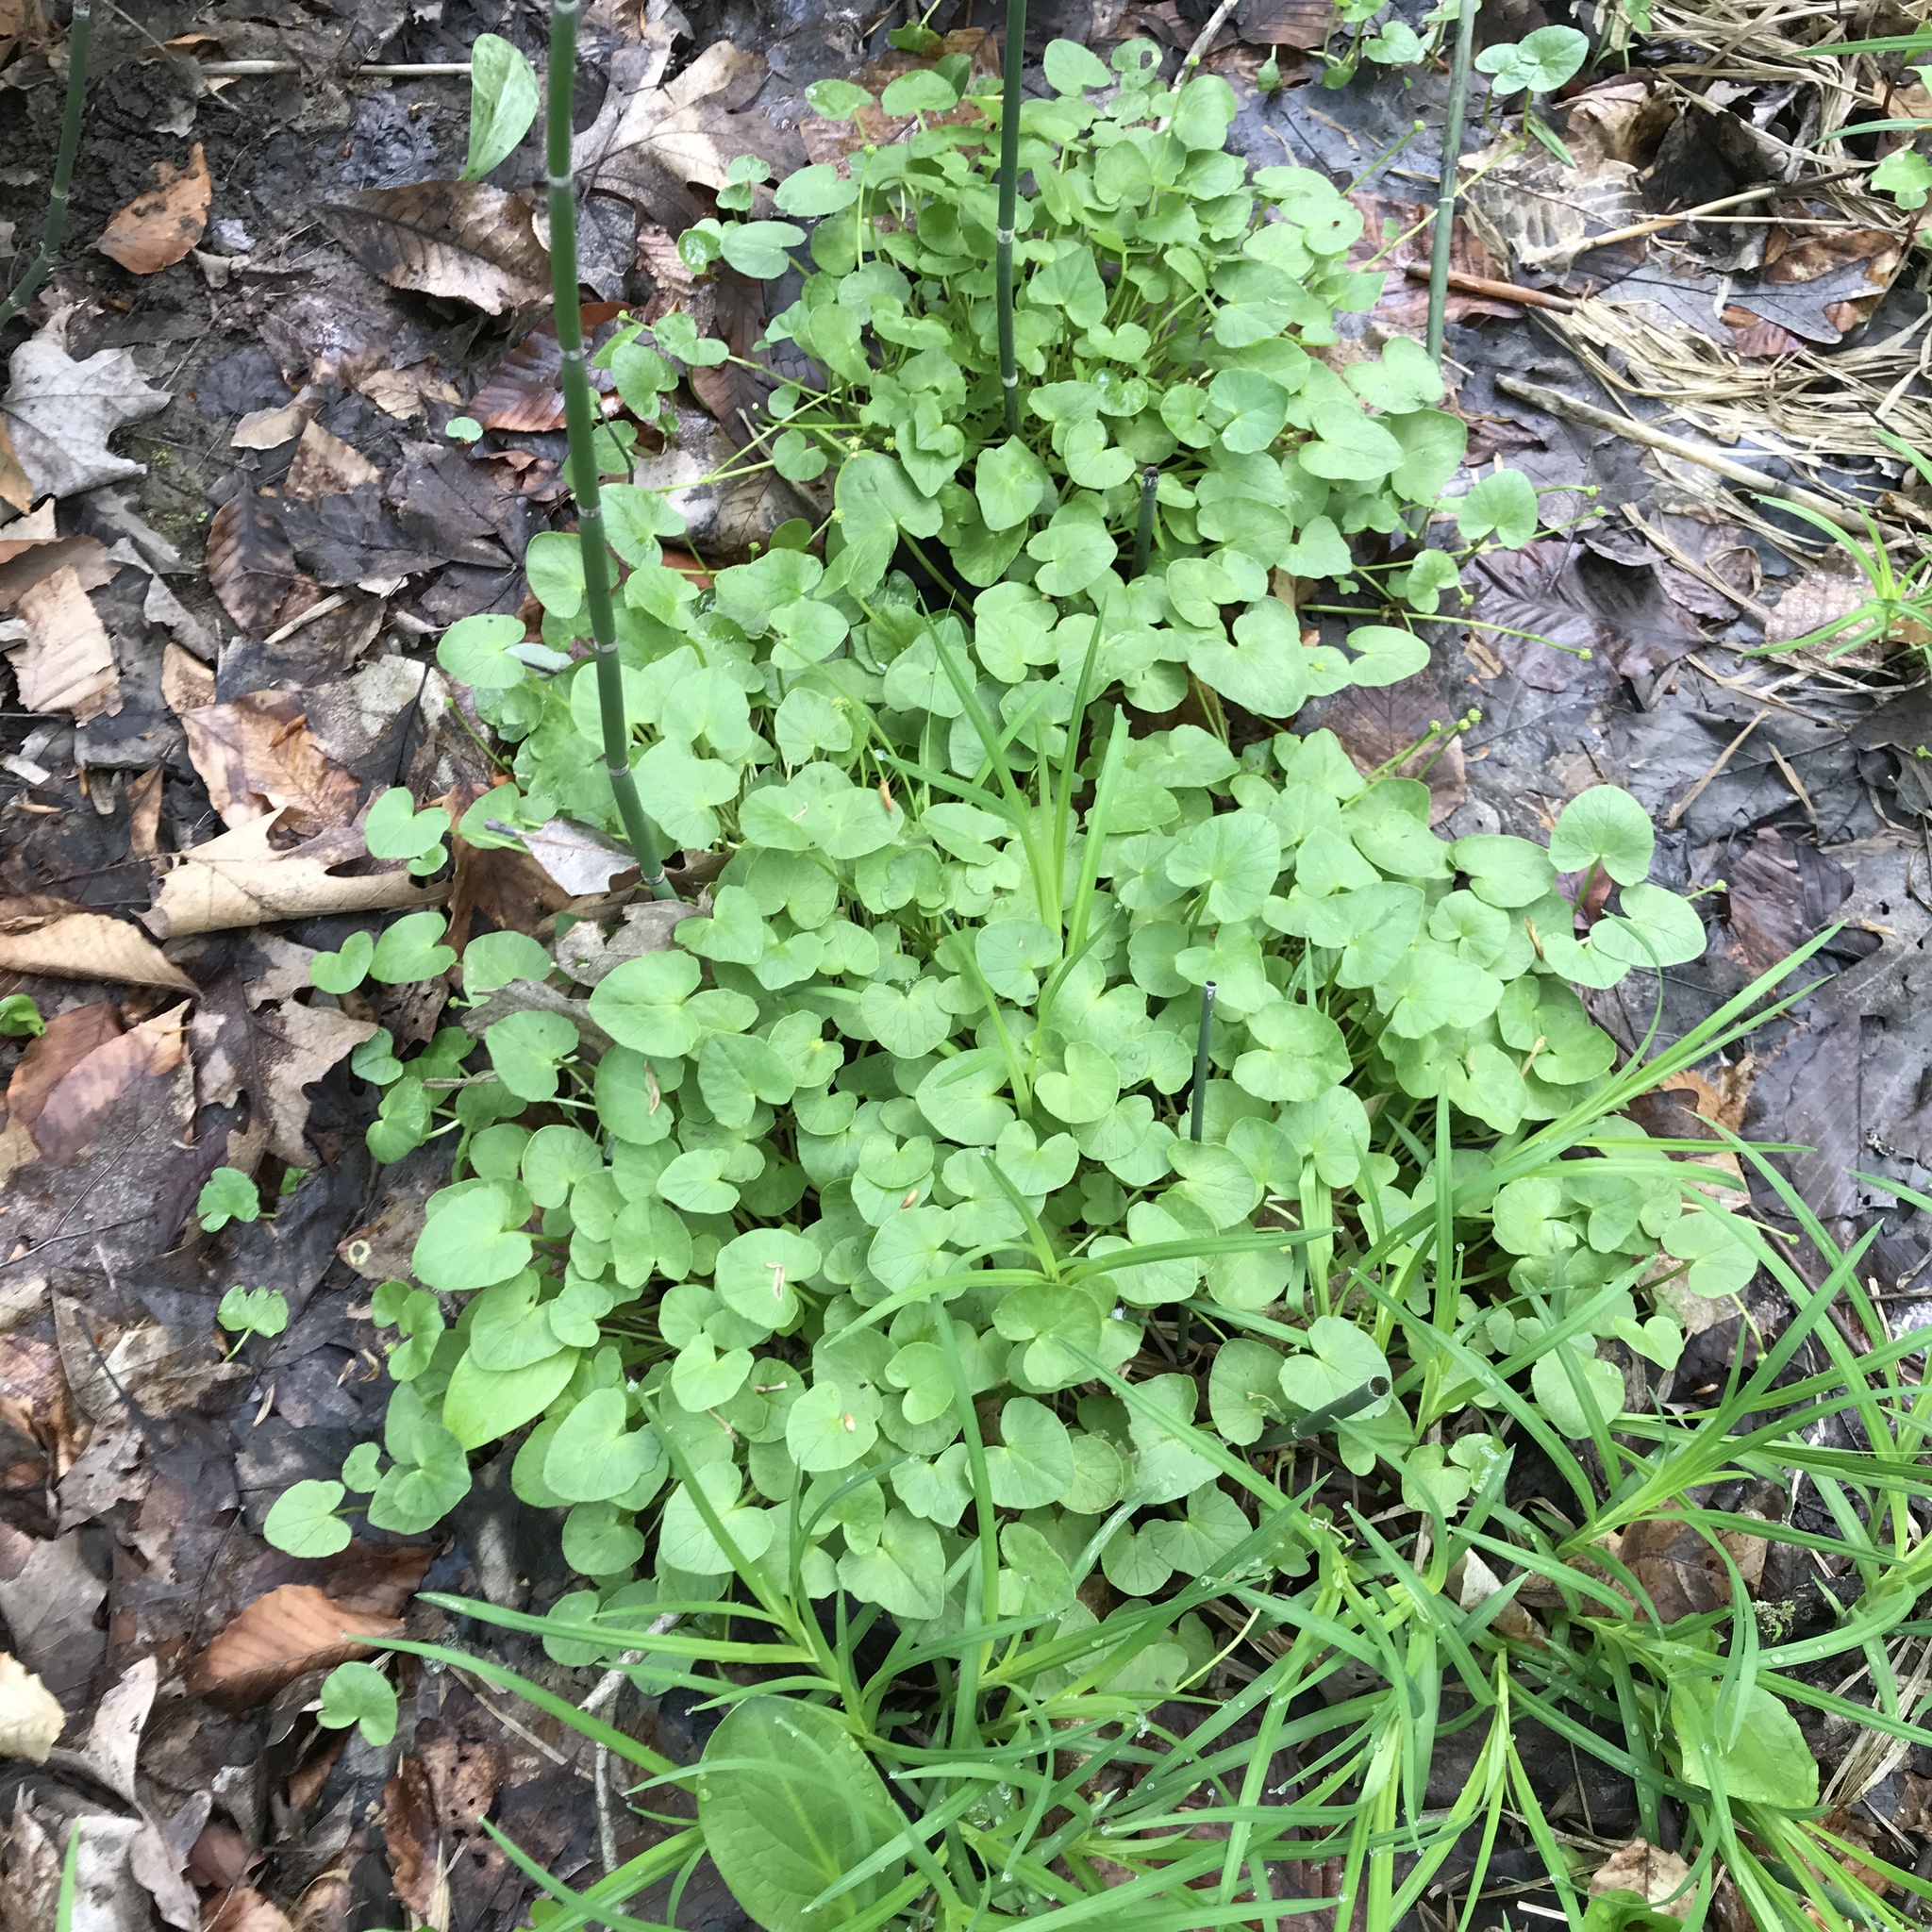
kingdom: Plantae
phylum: Tracheophyta
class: Magnoliopsida
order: Ranunculales
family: Ranunculaceae
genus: Ficaria
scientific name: Ficaria verna
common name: Lesser celandine
